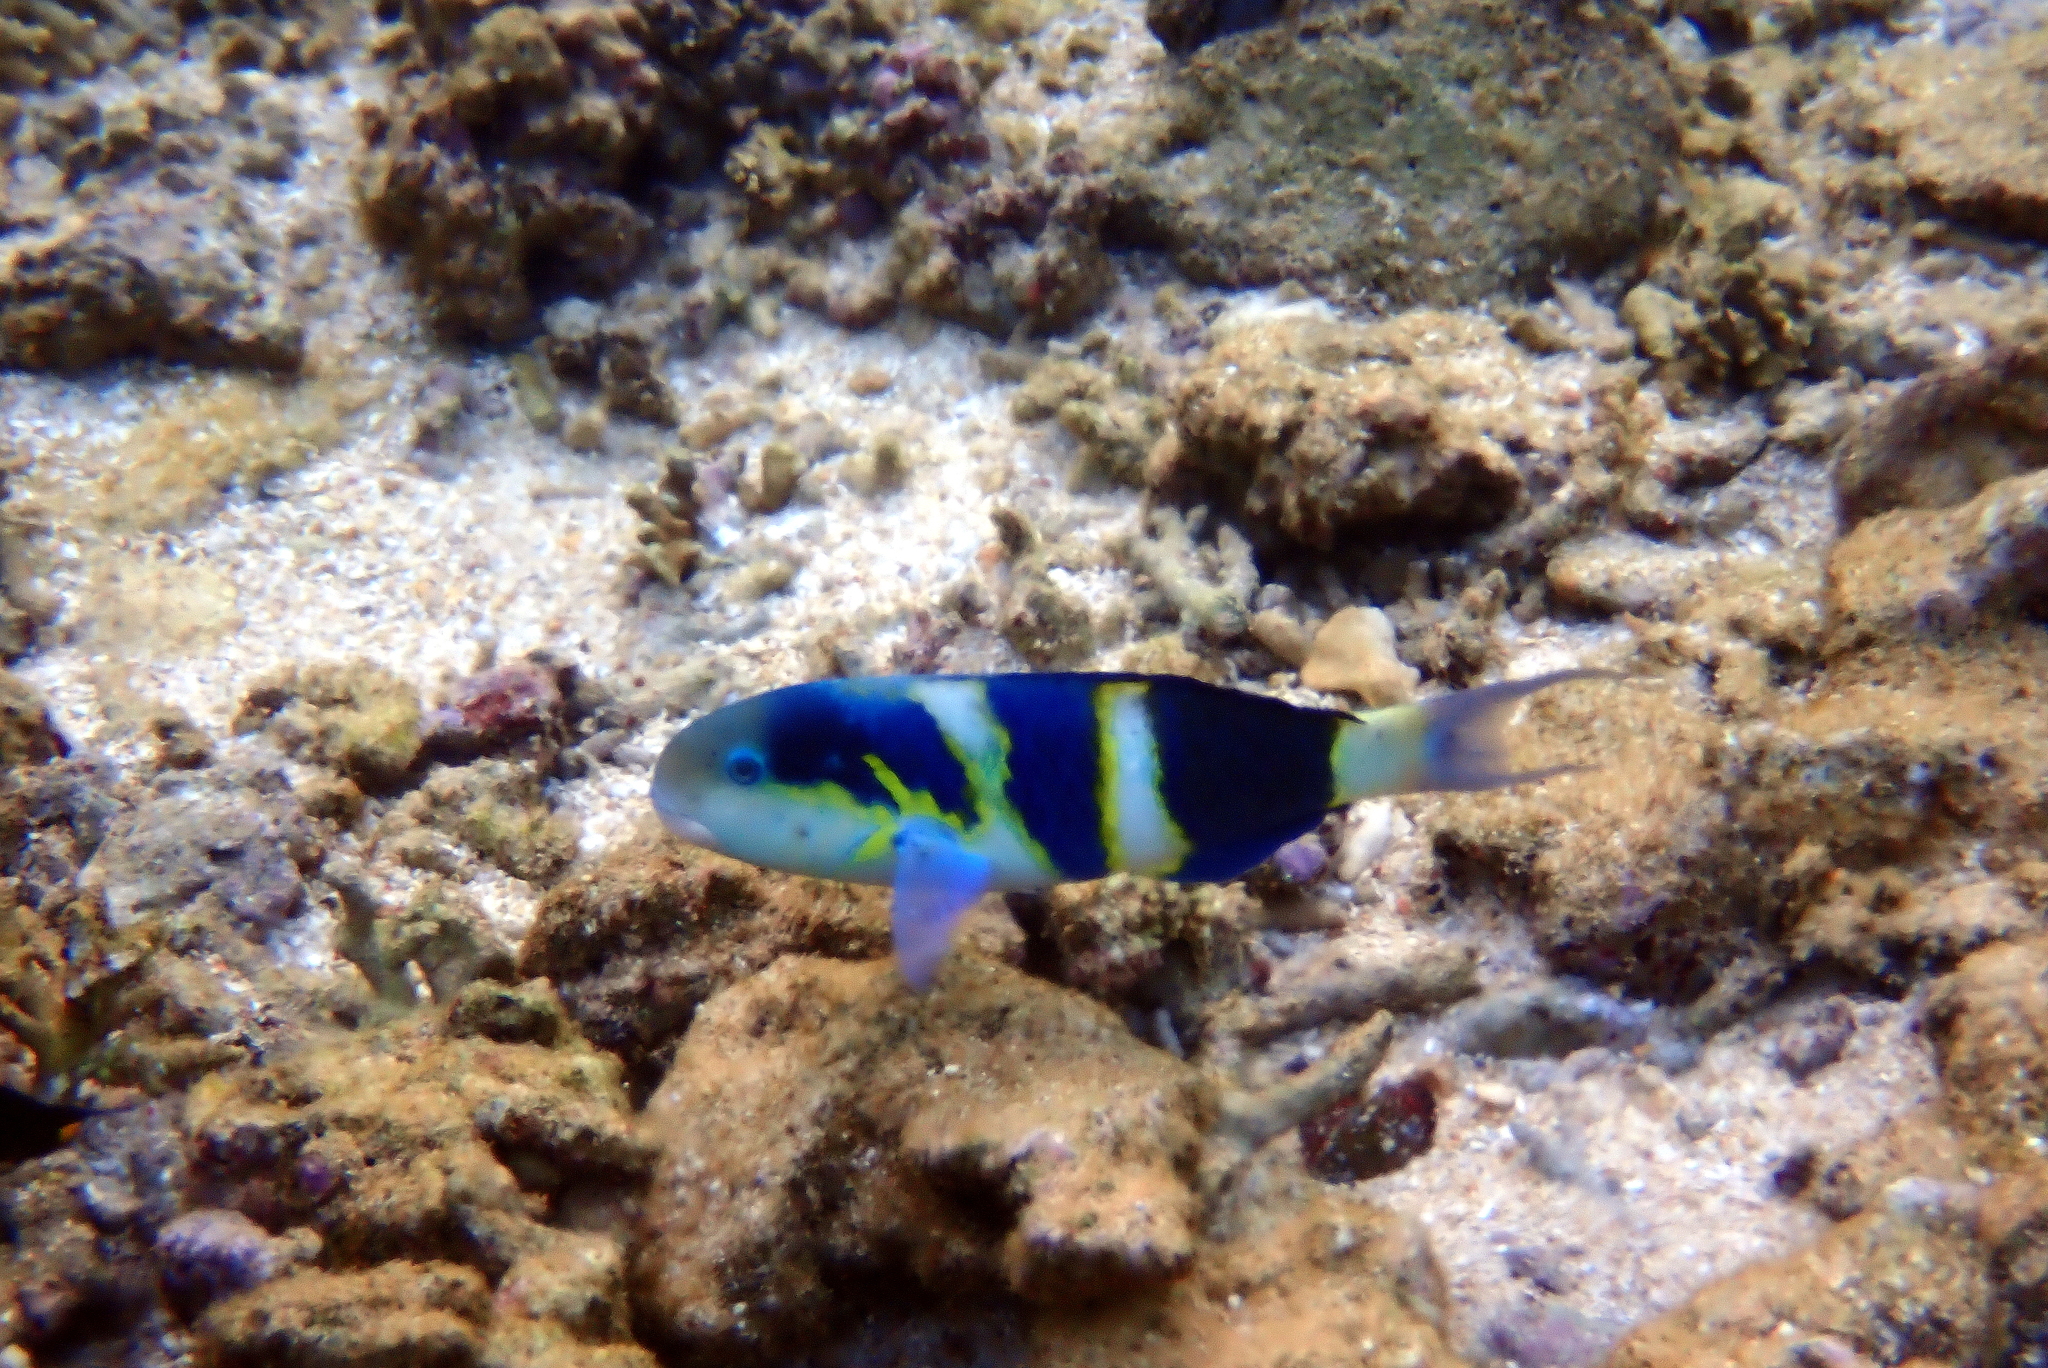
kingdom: Animalia
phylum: Chordata
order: Perciformes
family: Labridae
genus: Thalassoma
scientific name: Thalassoma nigrofasciatum
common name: Black-barred wrasse
